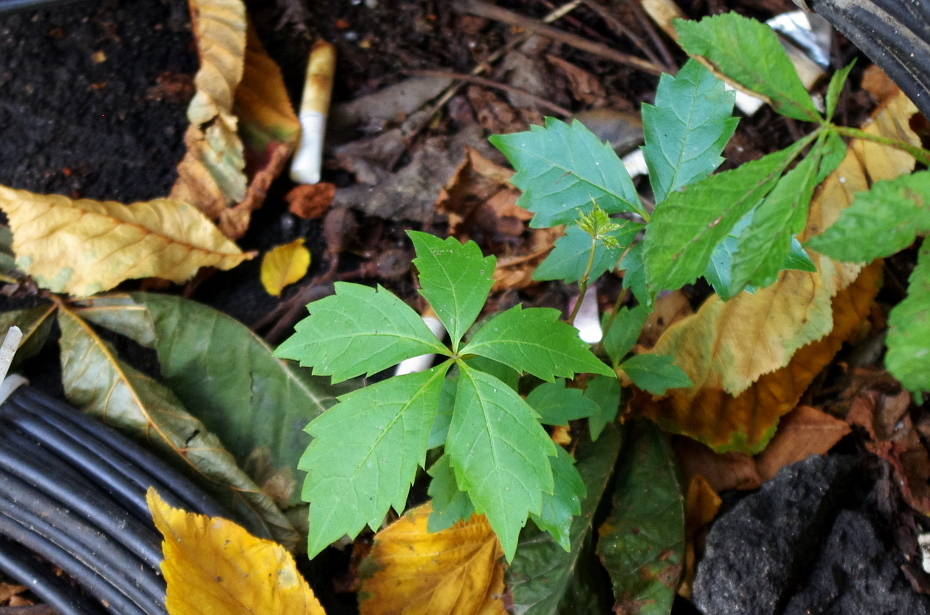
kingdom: Plantae
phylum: Tracheophyta
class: Magnoliopsida
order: Vitales
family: Vitaceae
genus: Parthenocissus
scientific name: Parthenocissus inserta
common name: False virginia-creeper
